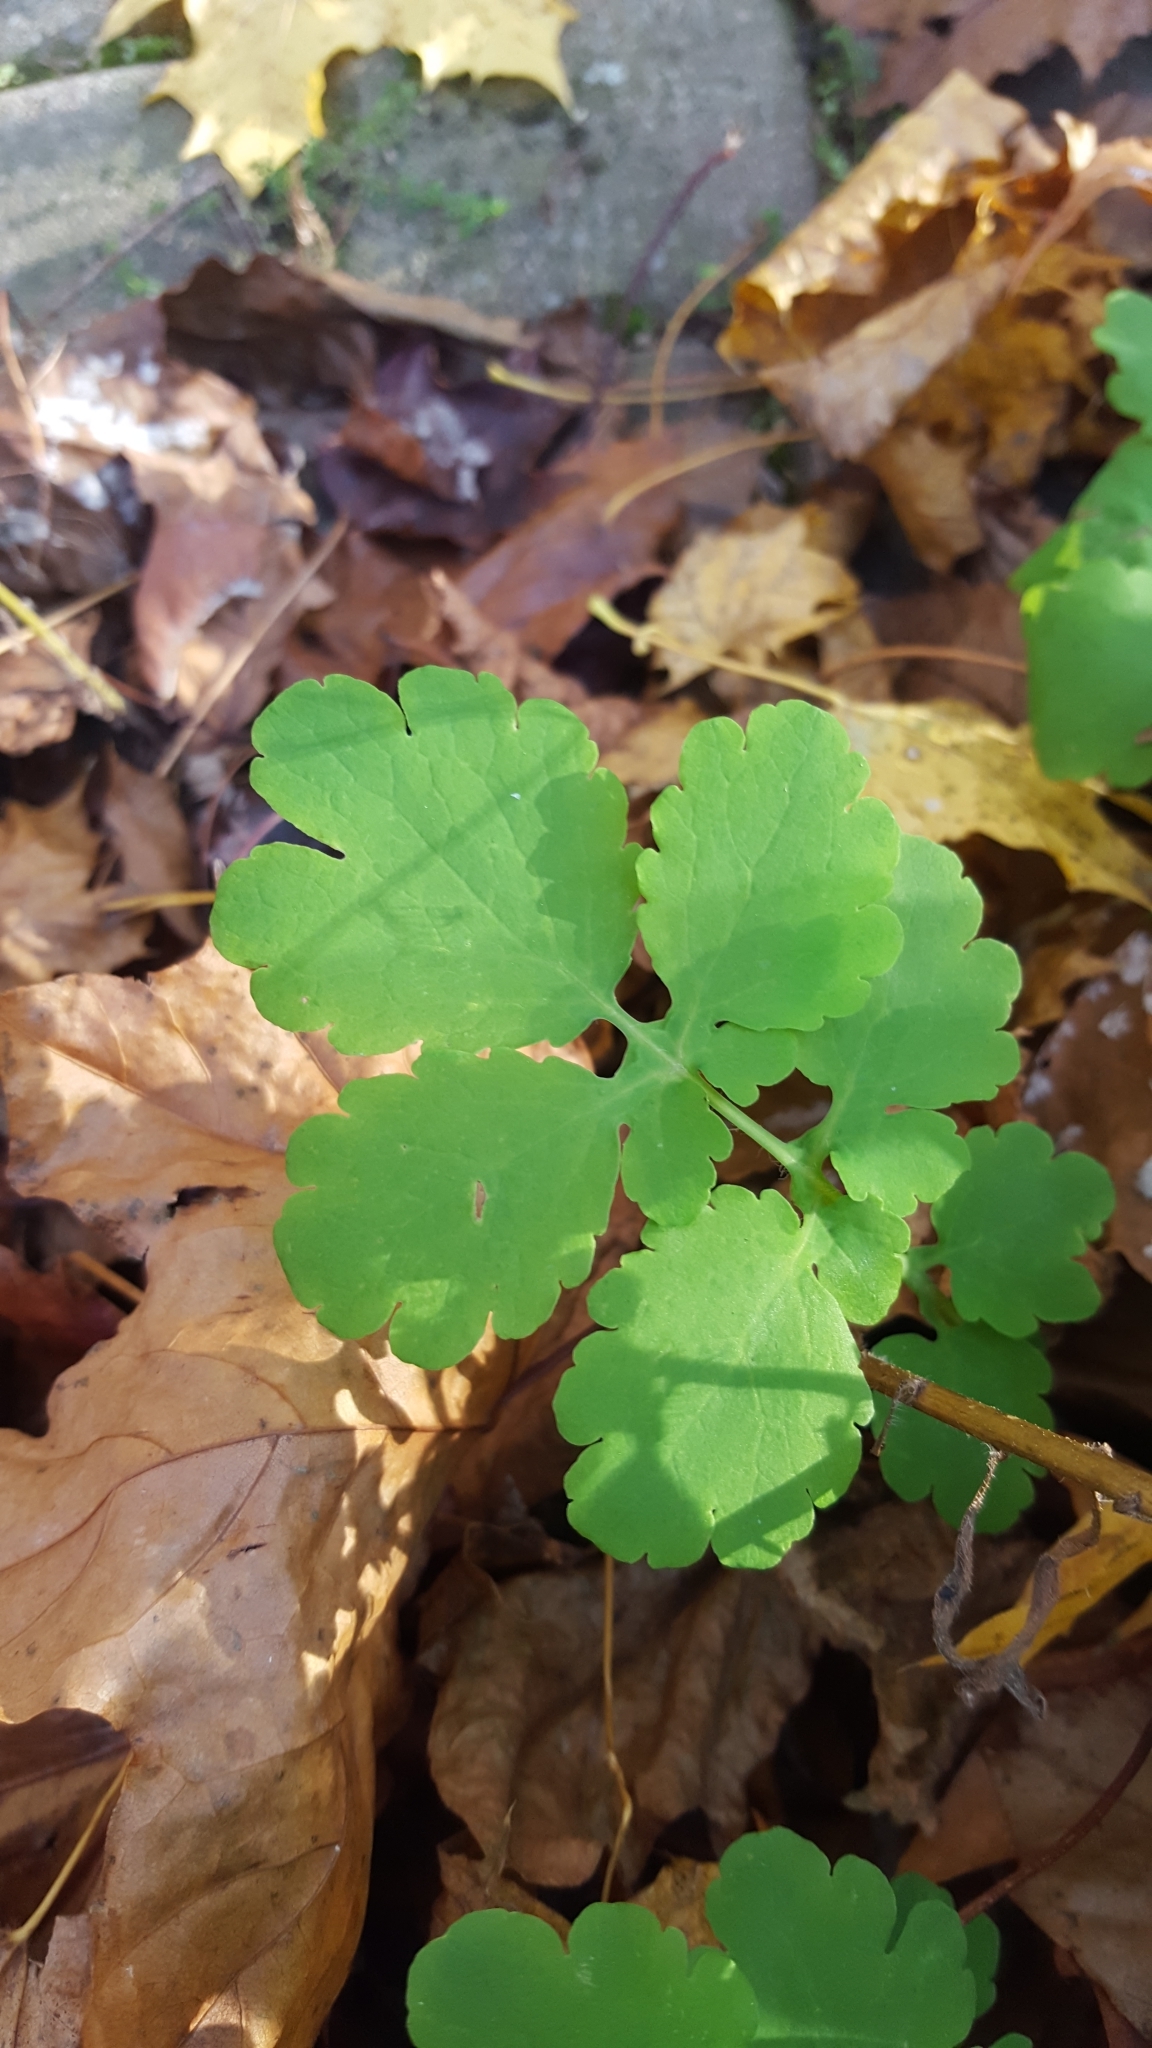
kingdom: Plantae
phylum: Tracheophyta
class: Magnoliopsida
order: Ranunculales
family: Papaveraceae
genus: Chelidonium
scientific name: Chelidonium majus
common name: Greater celandine
